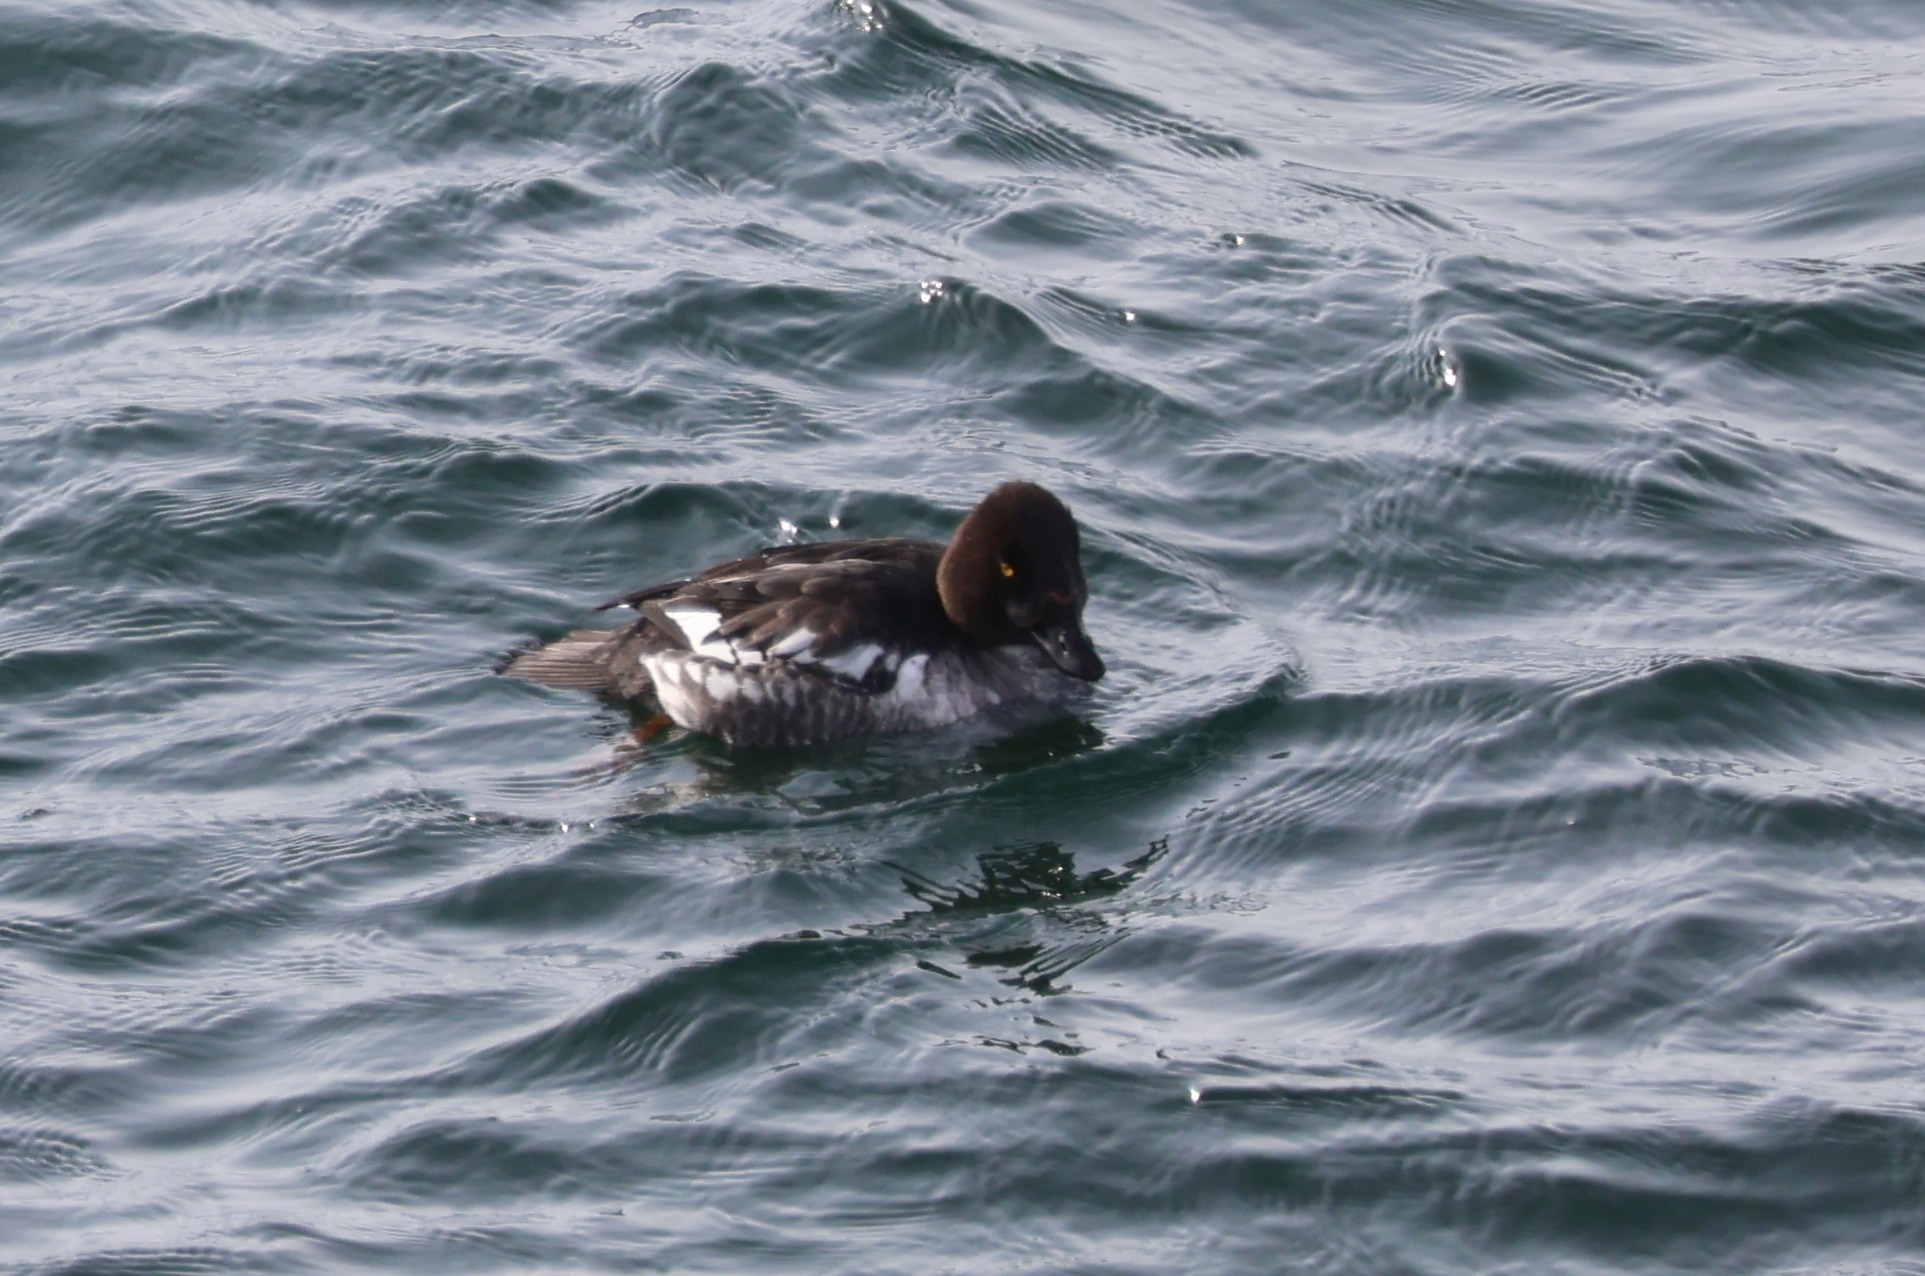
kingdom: Animalia
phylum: Chordata
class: Aves
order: Anseriformes
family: Anatidae
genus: Bucephala
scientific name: Bucephala clangula
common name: Common goldeneye
